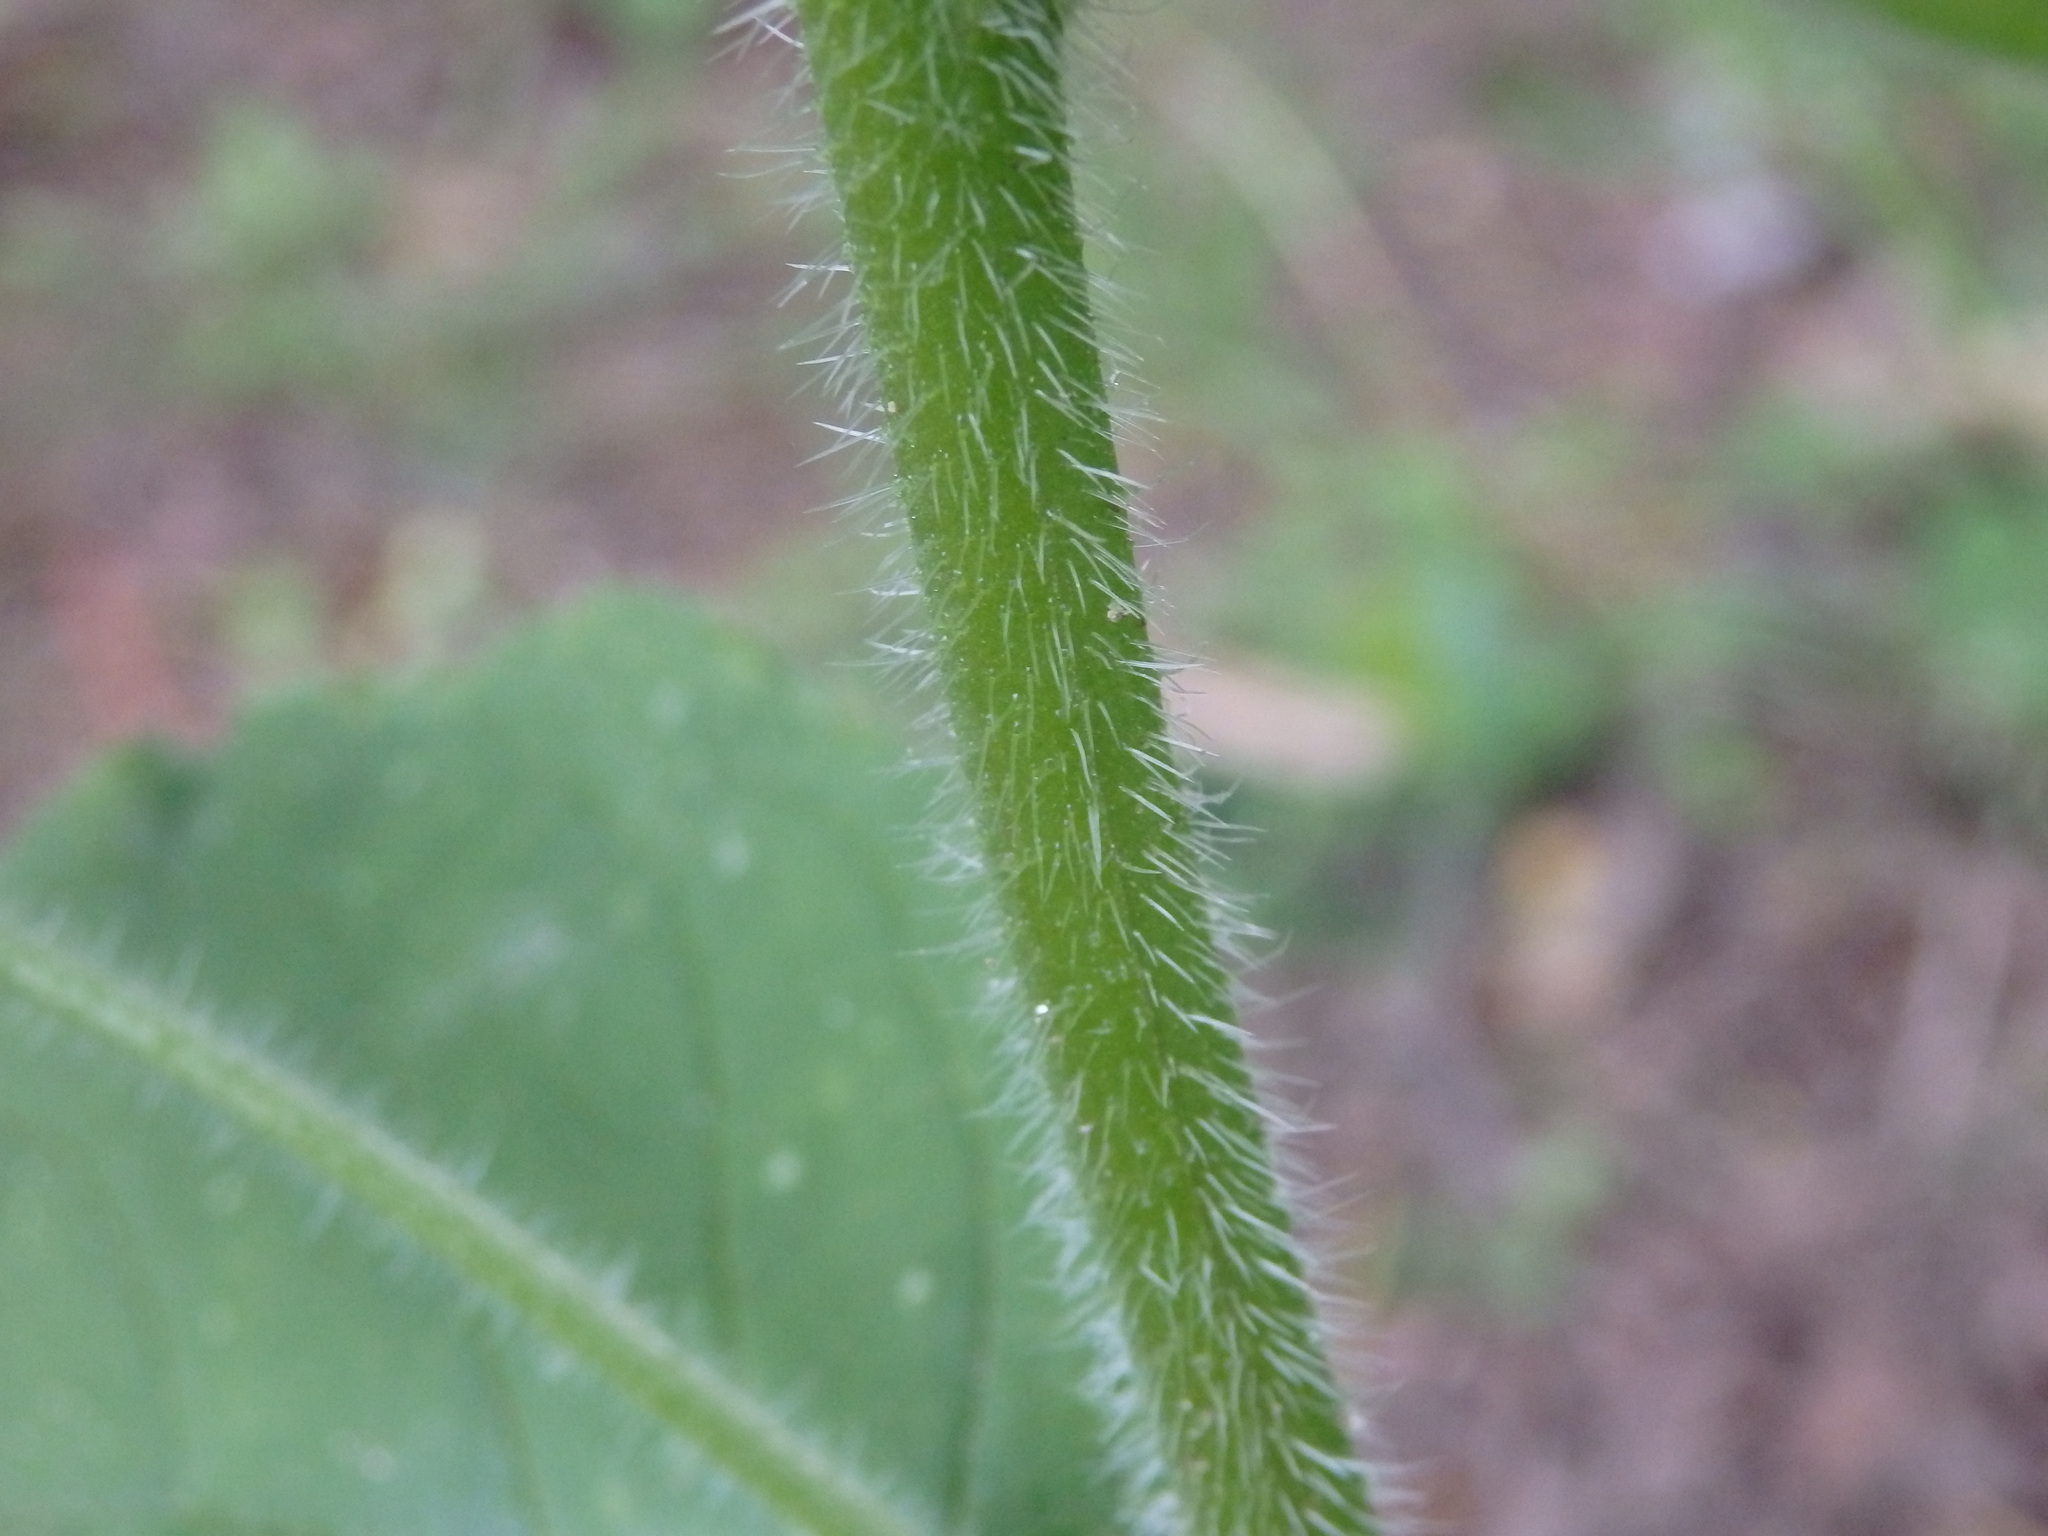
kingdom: Plantae
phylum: Tracheophyta
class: Magnoliopsida
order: Boraginales
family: Boraginaceae
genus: Pentaglottis
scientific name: Pentaglottis sempervirens
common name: Green alkanet
